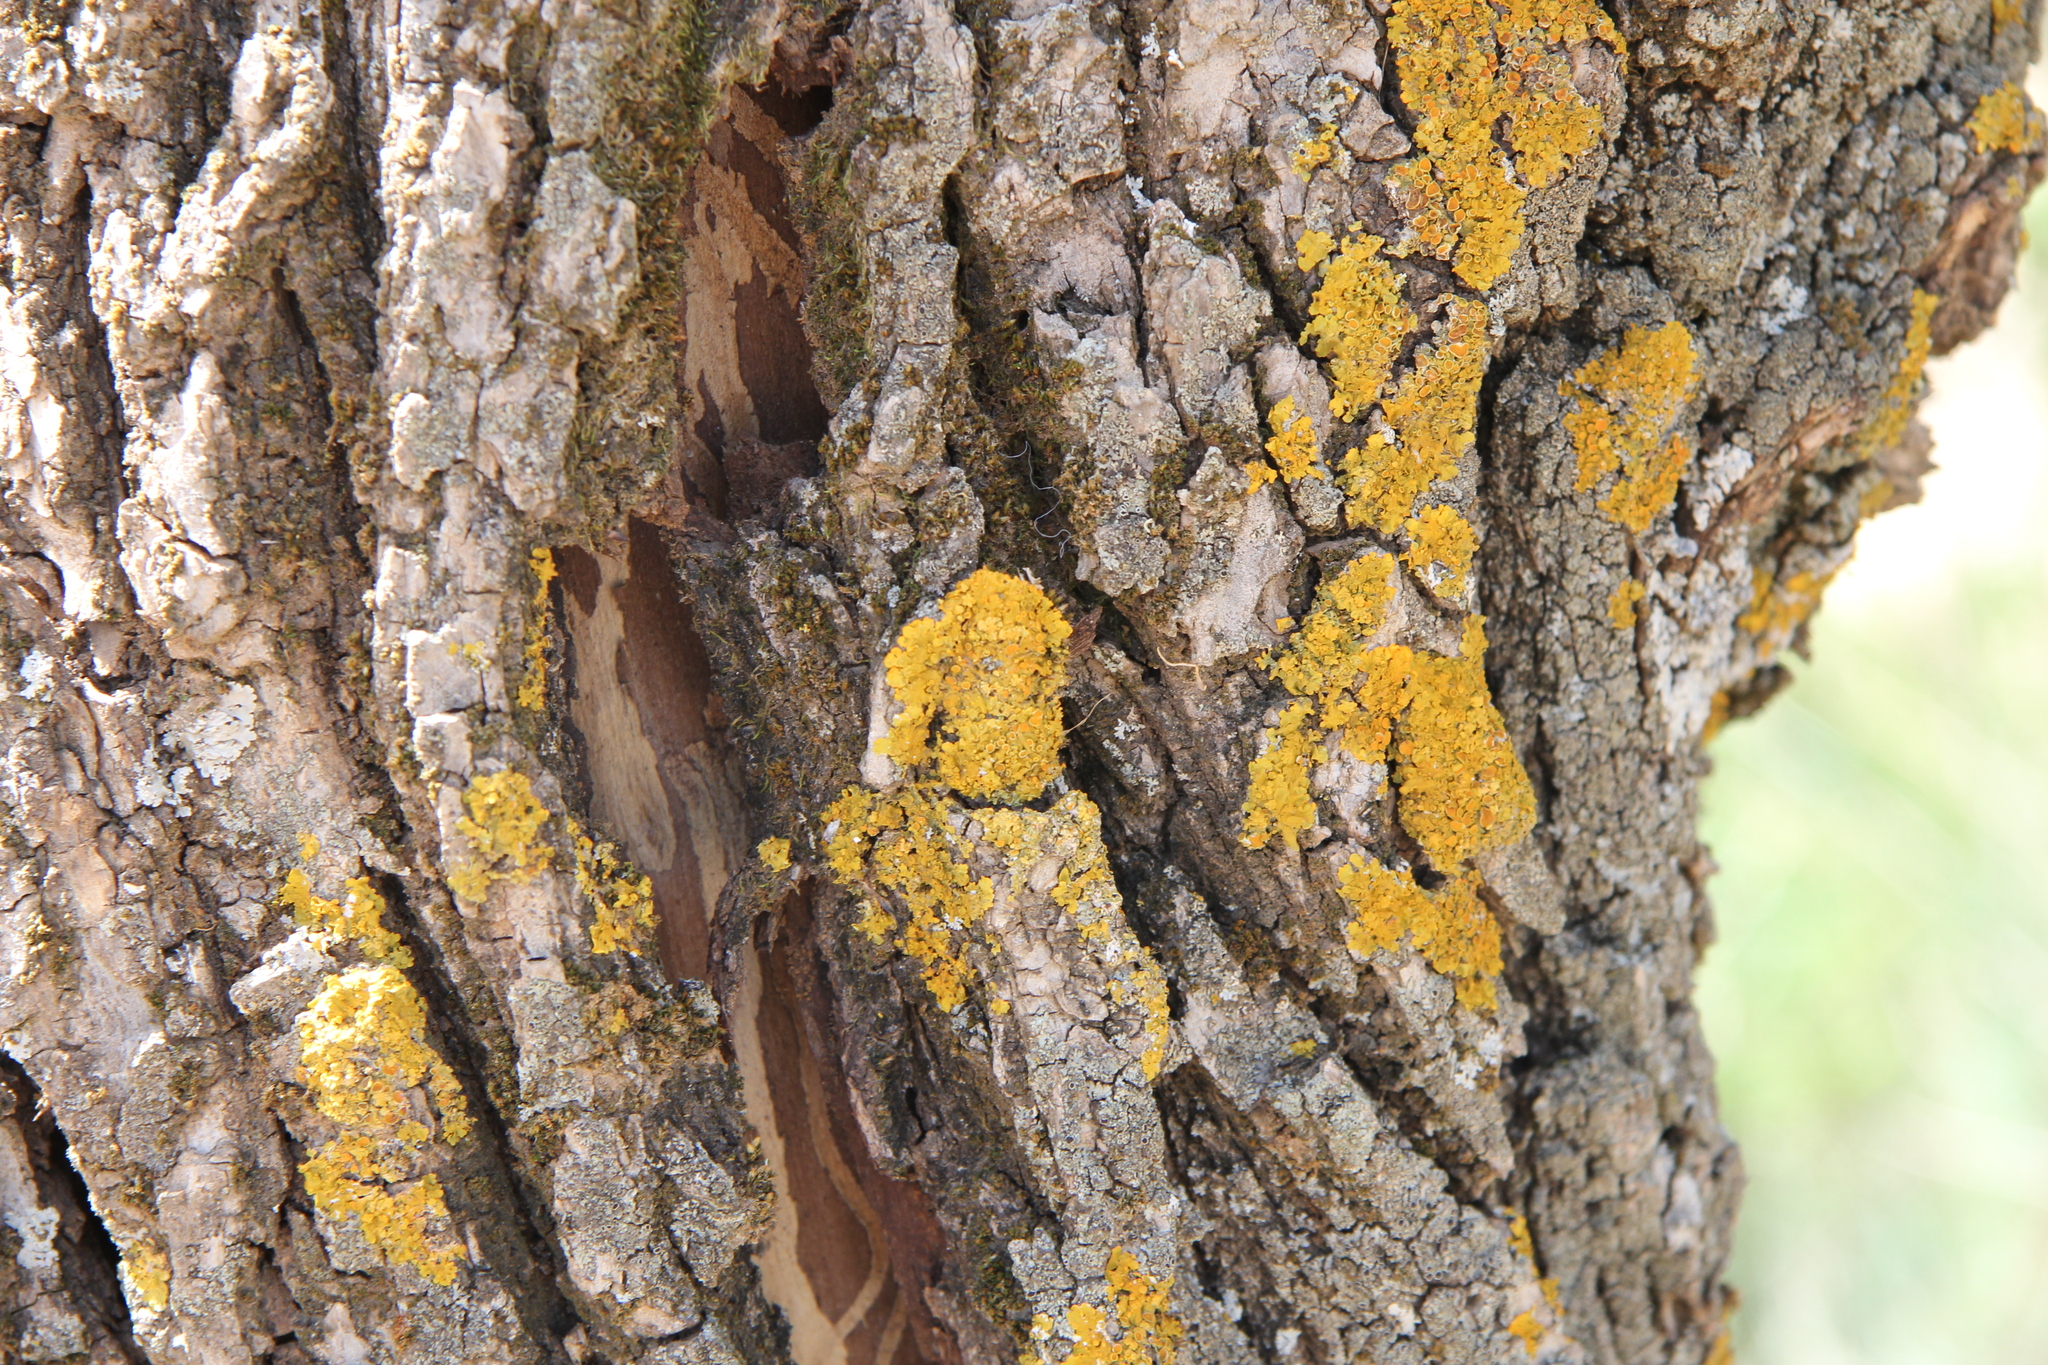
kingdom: Fungi
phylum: Ascomycota
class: Lecanoromycetes
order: Teloschistales
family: Teloschistaceae
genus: Xanthoria
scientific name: Xanthoria parietina
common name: Common orange lichen
